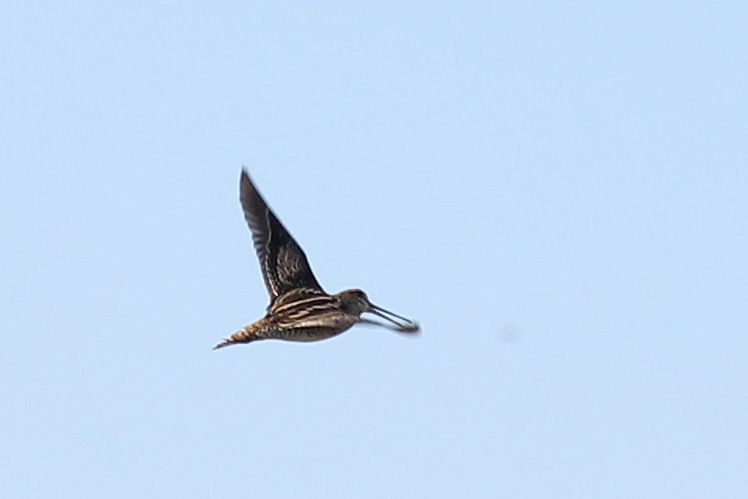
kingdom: Animalia
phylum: Chordata
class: Aves
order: Charadriiformes
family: Scolopacidae
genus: Gallinago
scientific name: Gallinago
